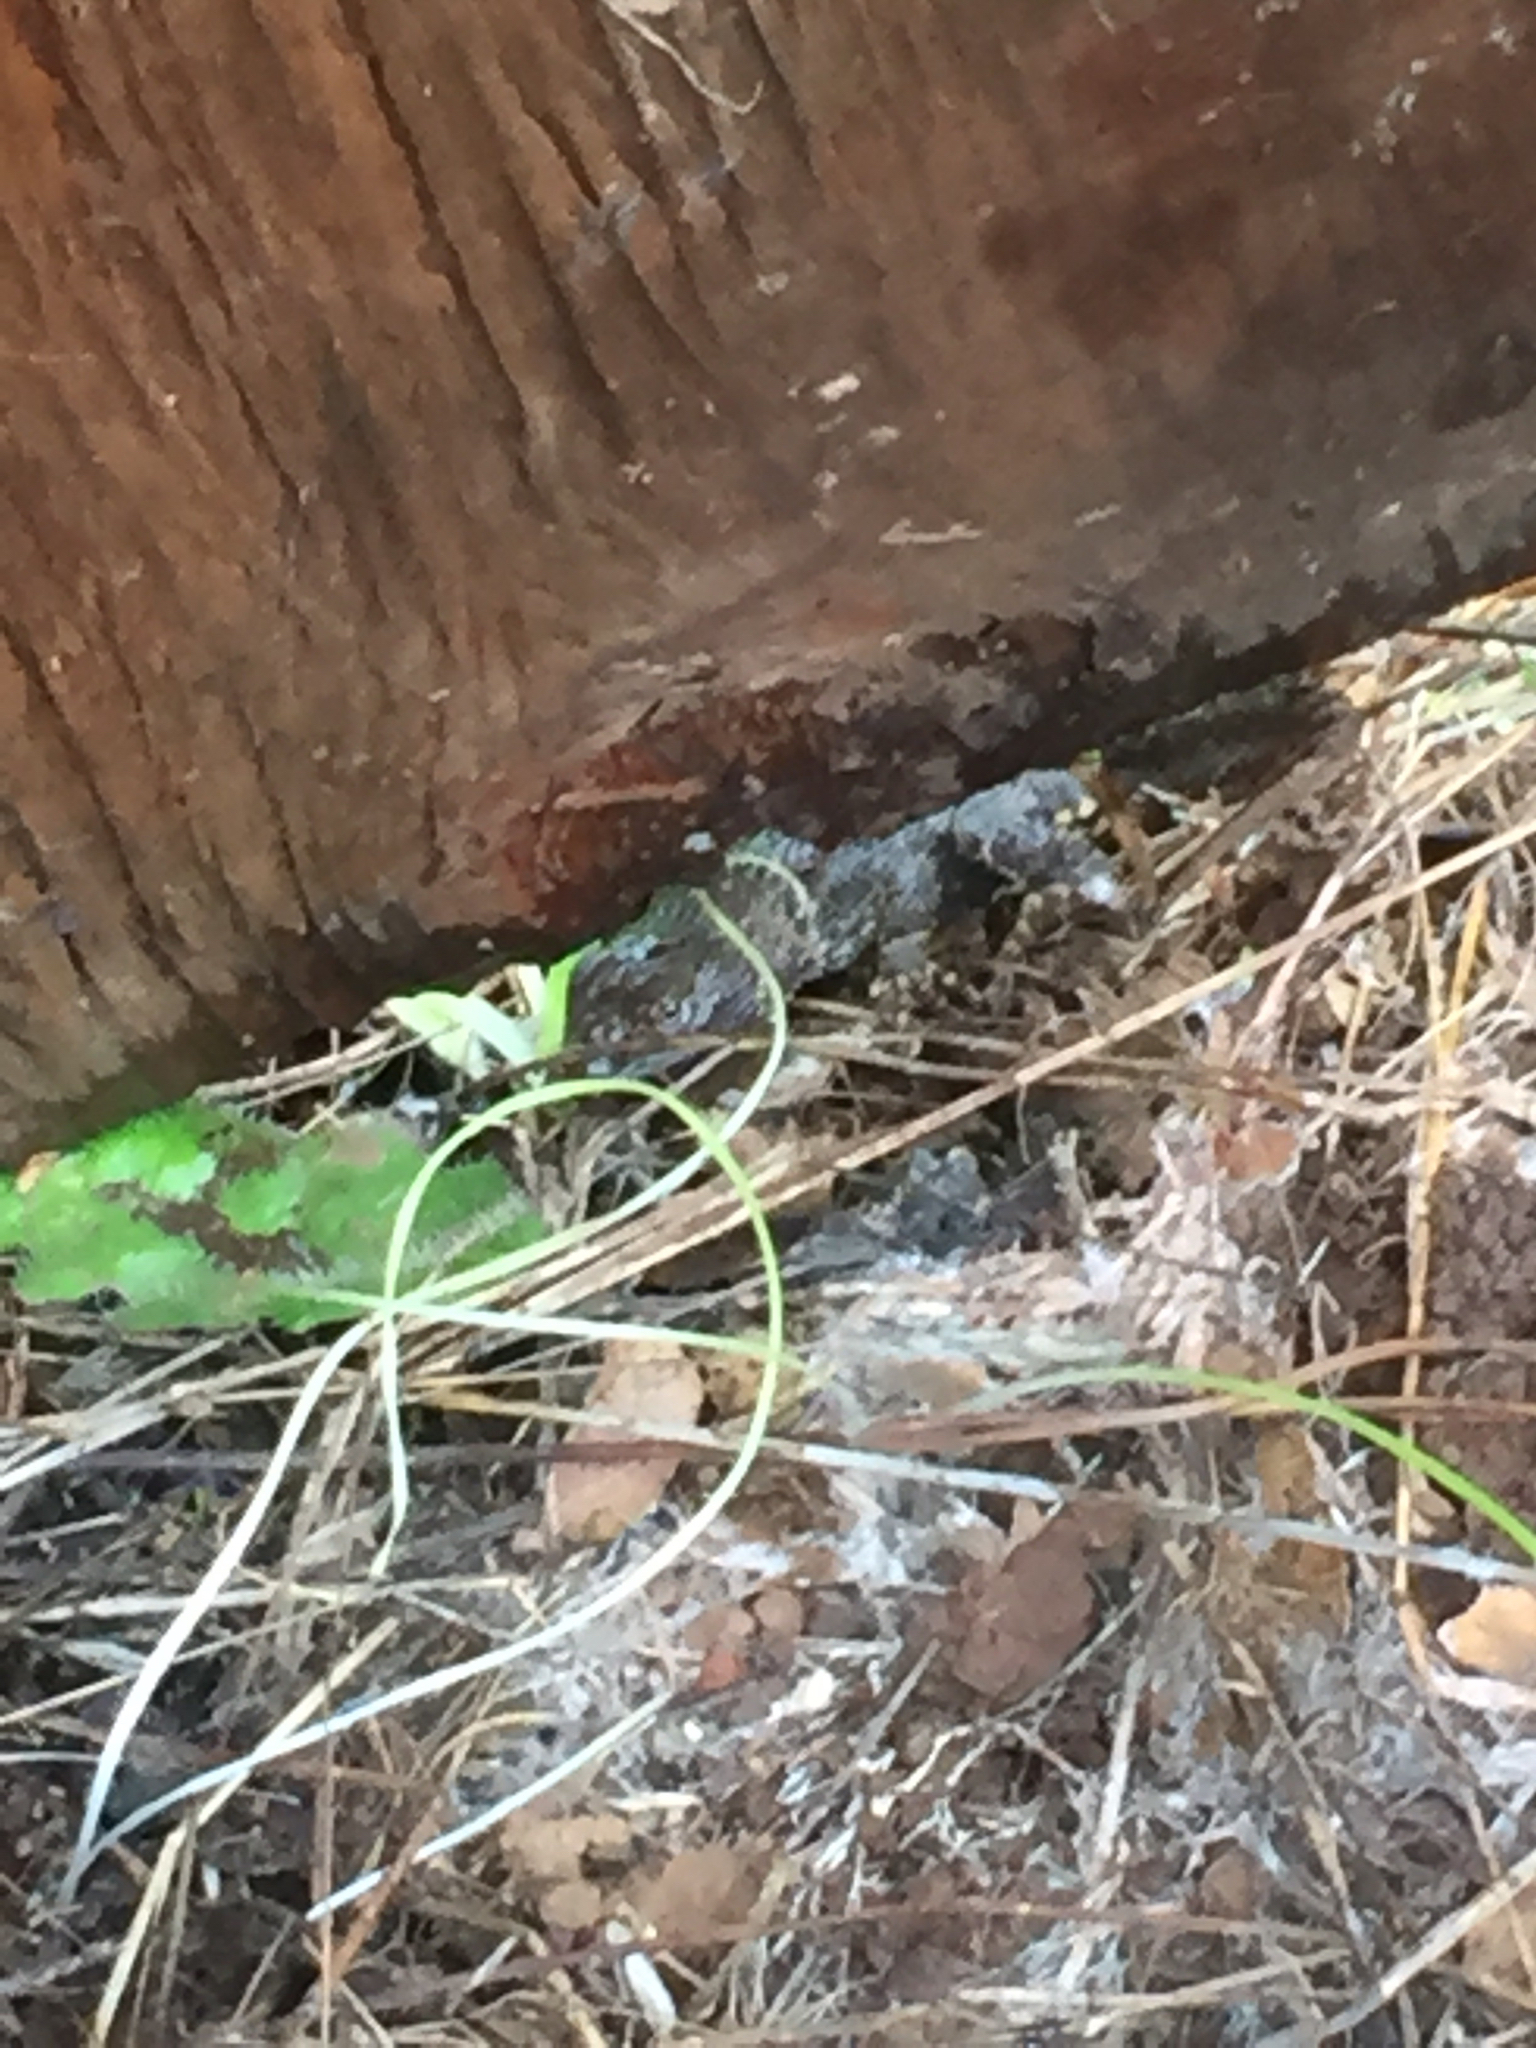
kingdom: Animalia
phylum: Chordata
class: Squamata
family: Phrynosomatidae
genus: Sceloporus
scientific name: Sceloporus occidentalis
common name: Western fence lizard
